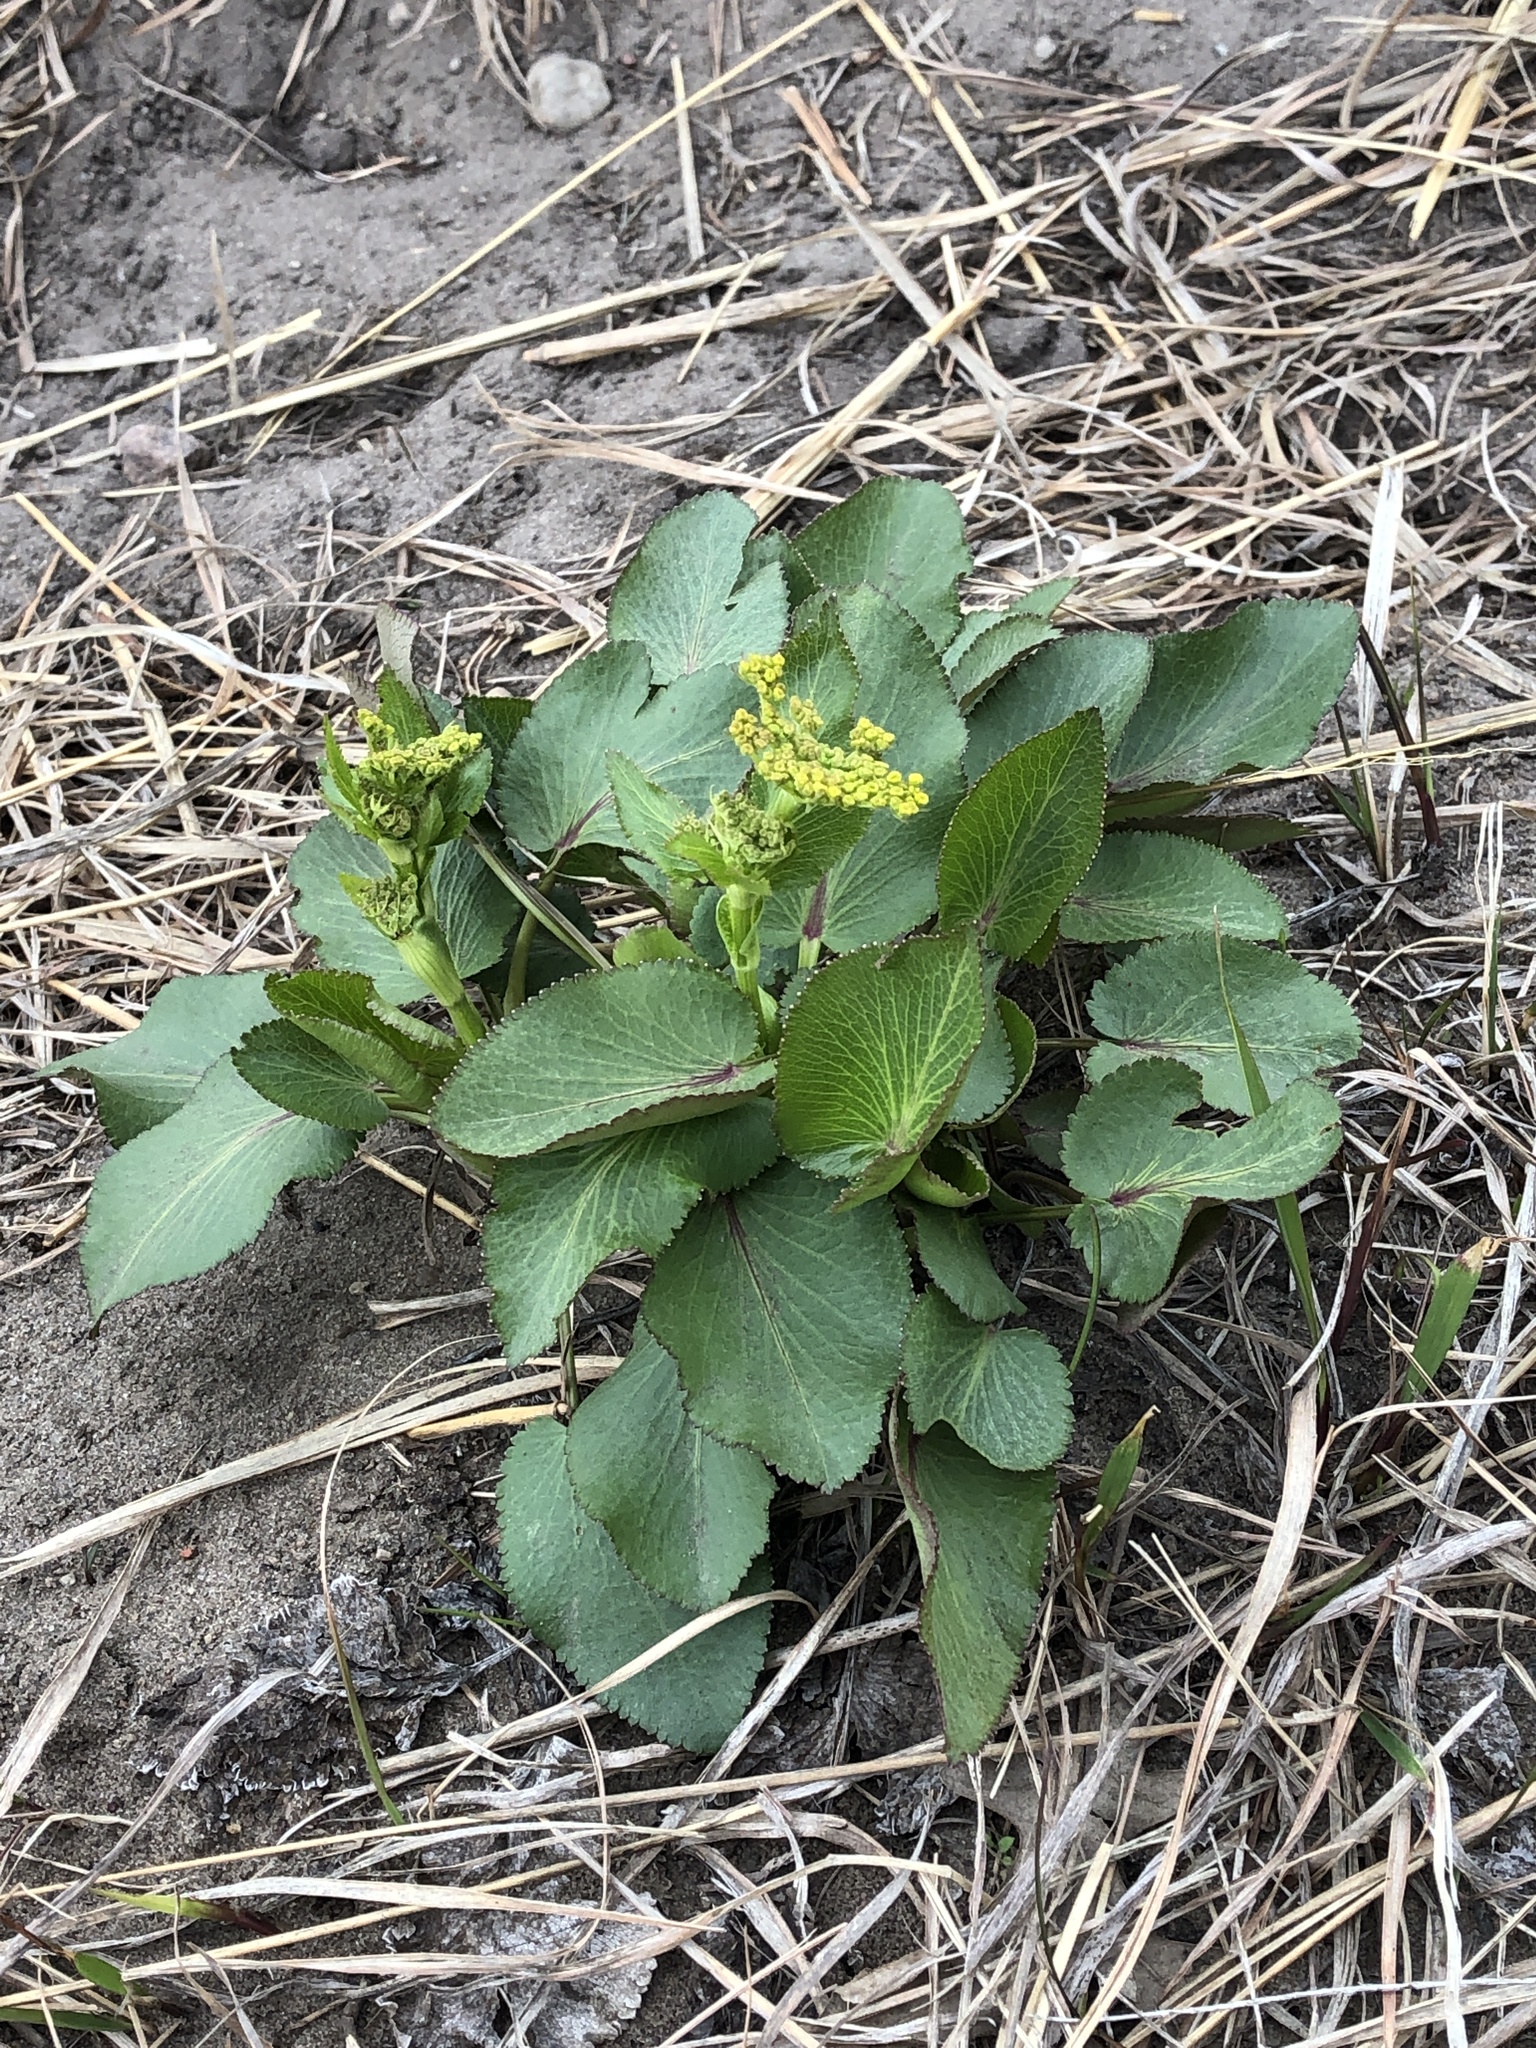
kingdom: Plantae
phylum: Tracheophyta
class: Magnoliopsida
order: Apiales
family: Apiaceae
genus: Zizia
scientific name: Zizia aptera
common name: Heart-leaved alexanders
